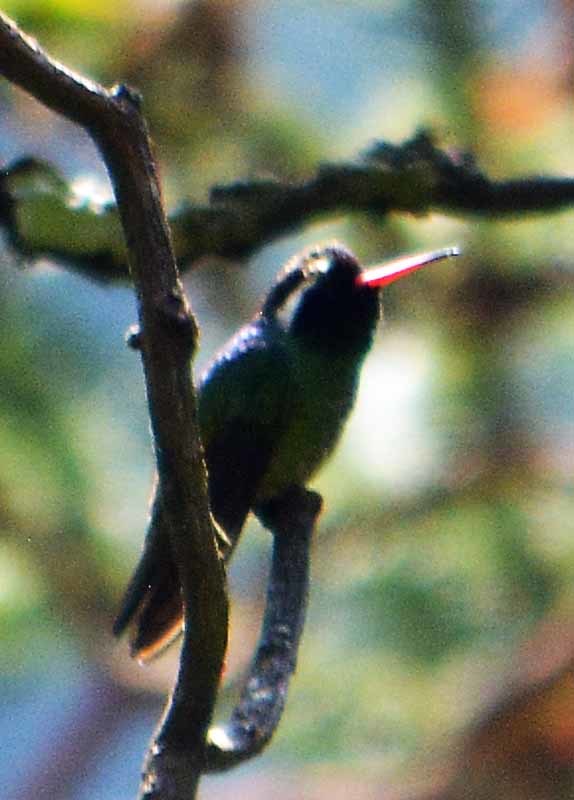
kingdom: Animalia
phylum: Chordata
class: Aves
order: Apodiformes
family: Trochilidae
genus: Basilinna
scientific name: Basilinna leucotis
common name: White-eared hummingbird
